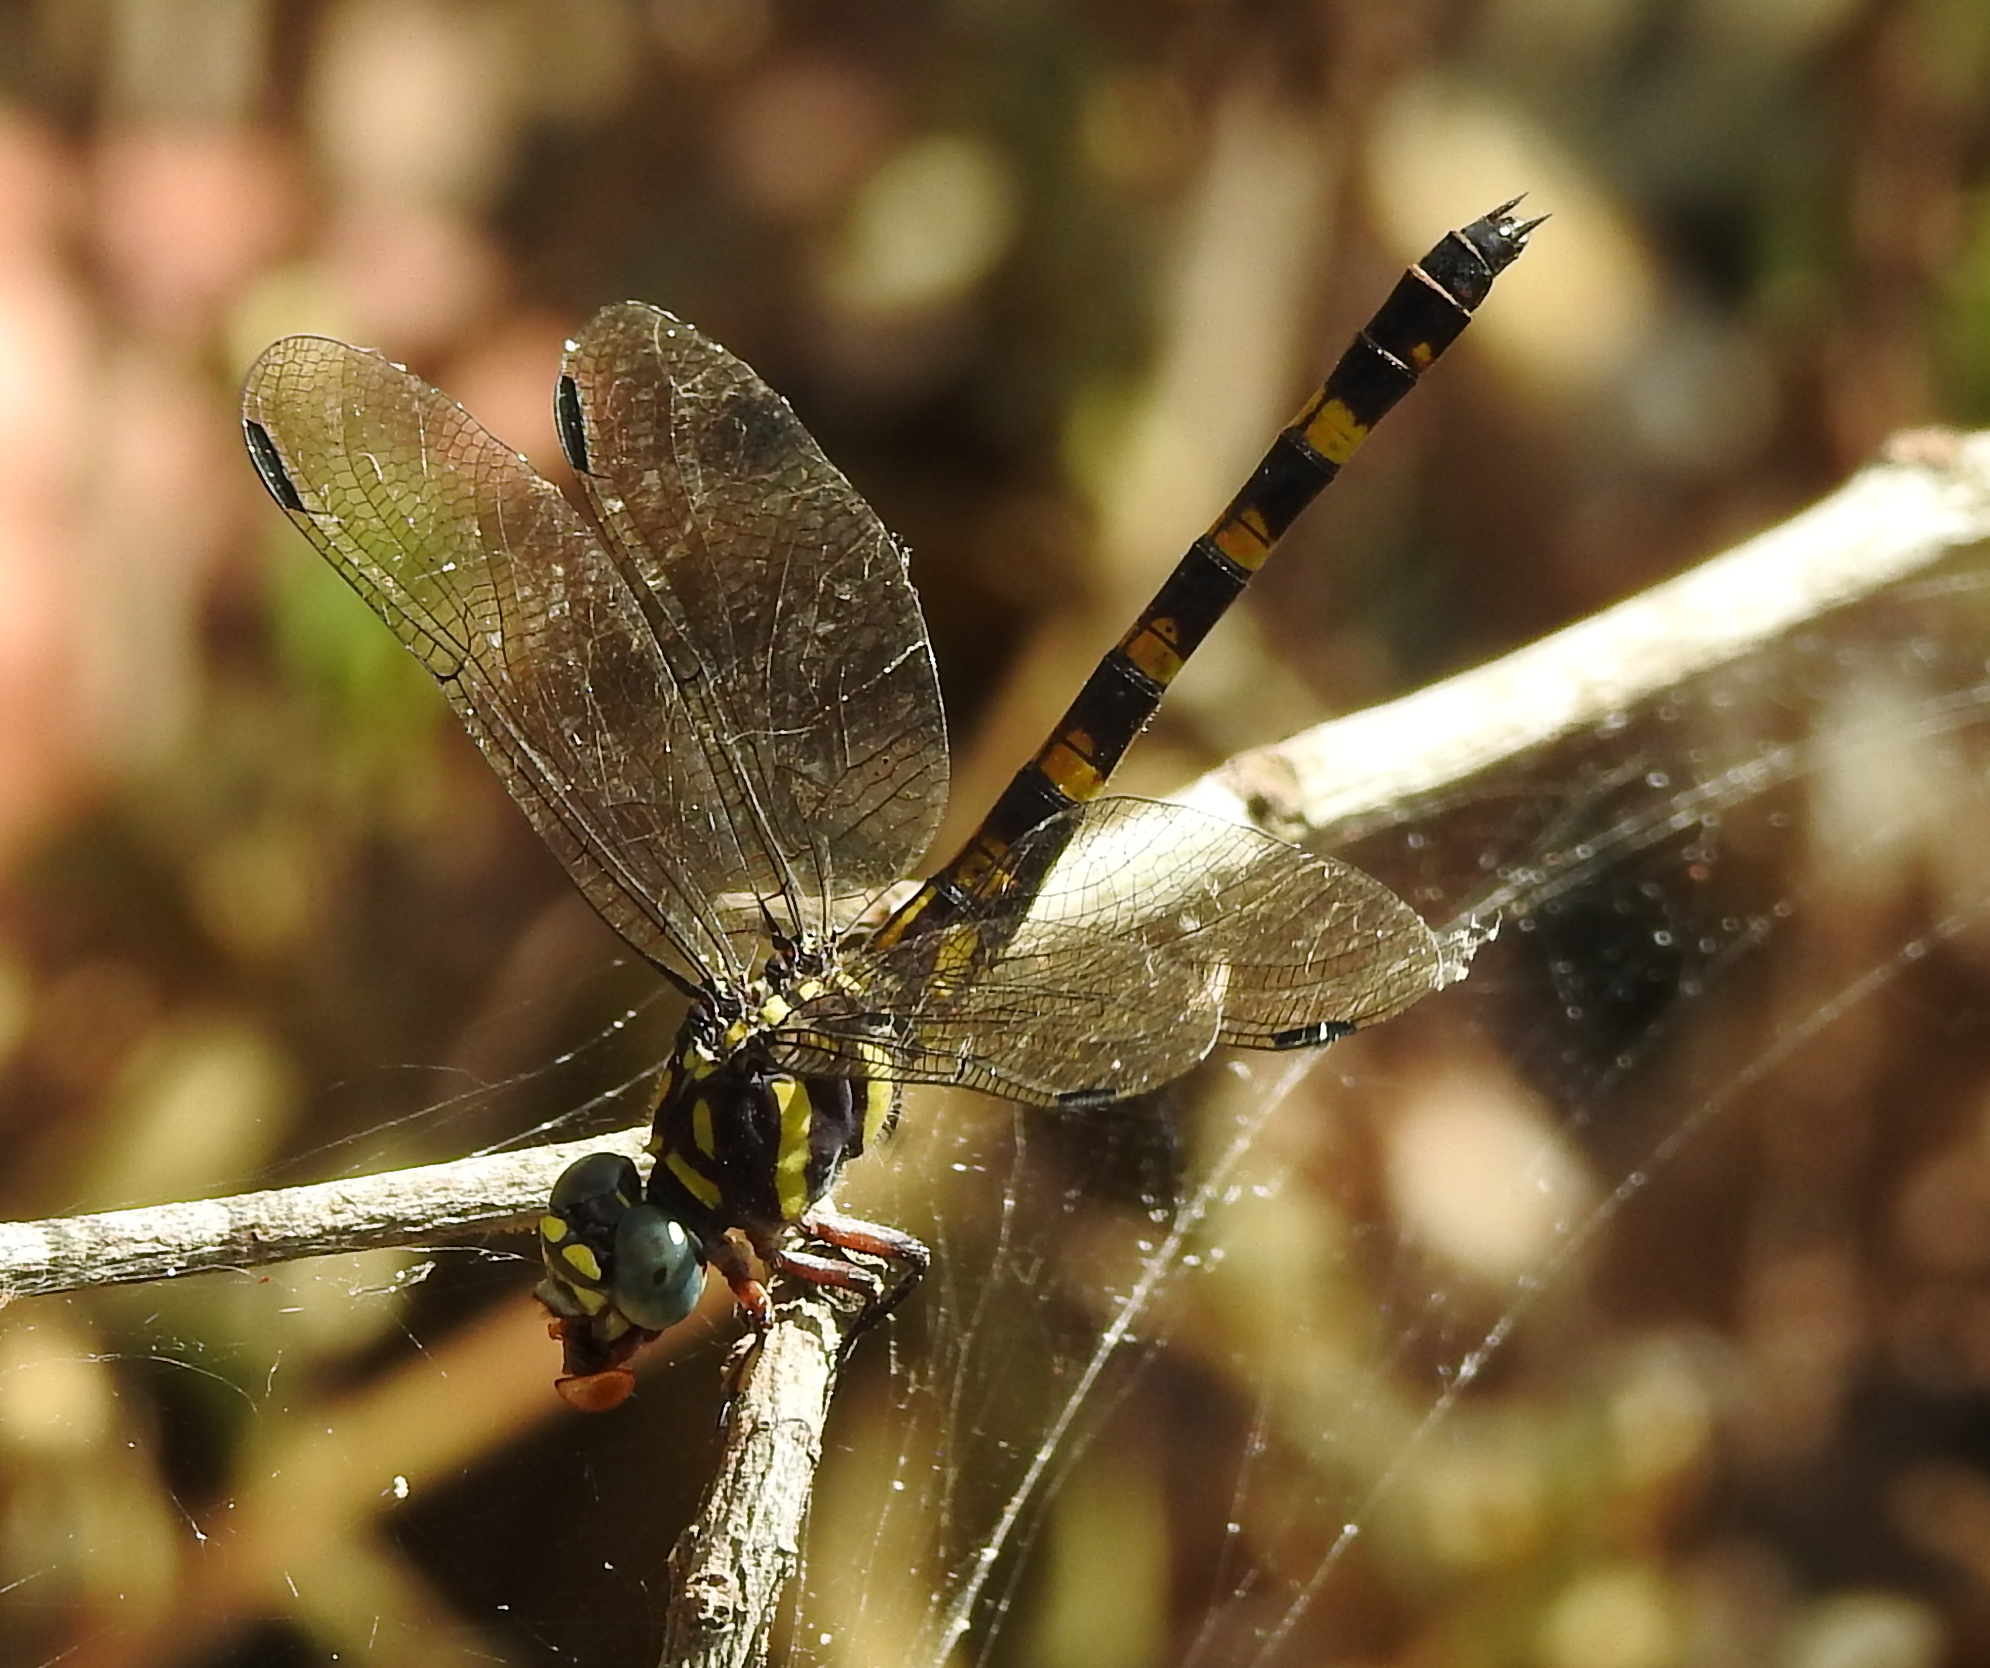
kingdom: Animalia
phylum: Arthropoda
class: Insecta
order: Odonata
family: Gomphidae
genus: Paragomphus
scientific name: Paragomphus capricornis
